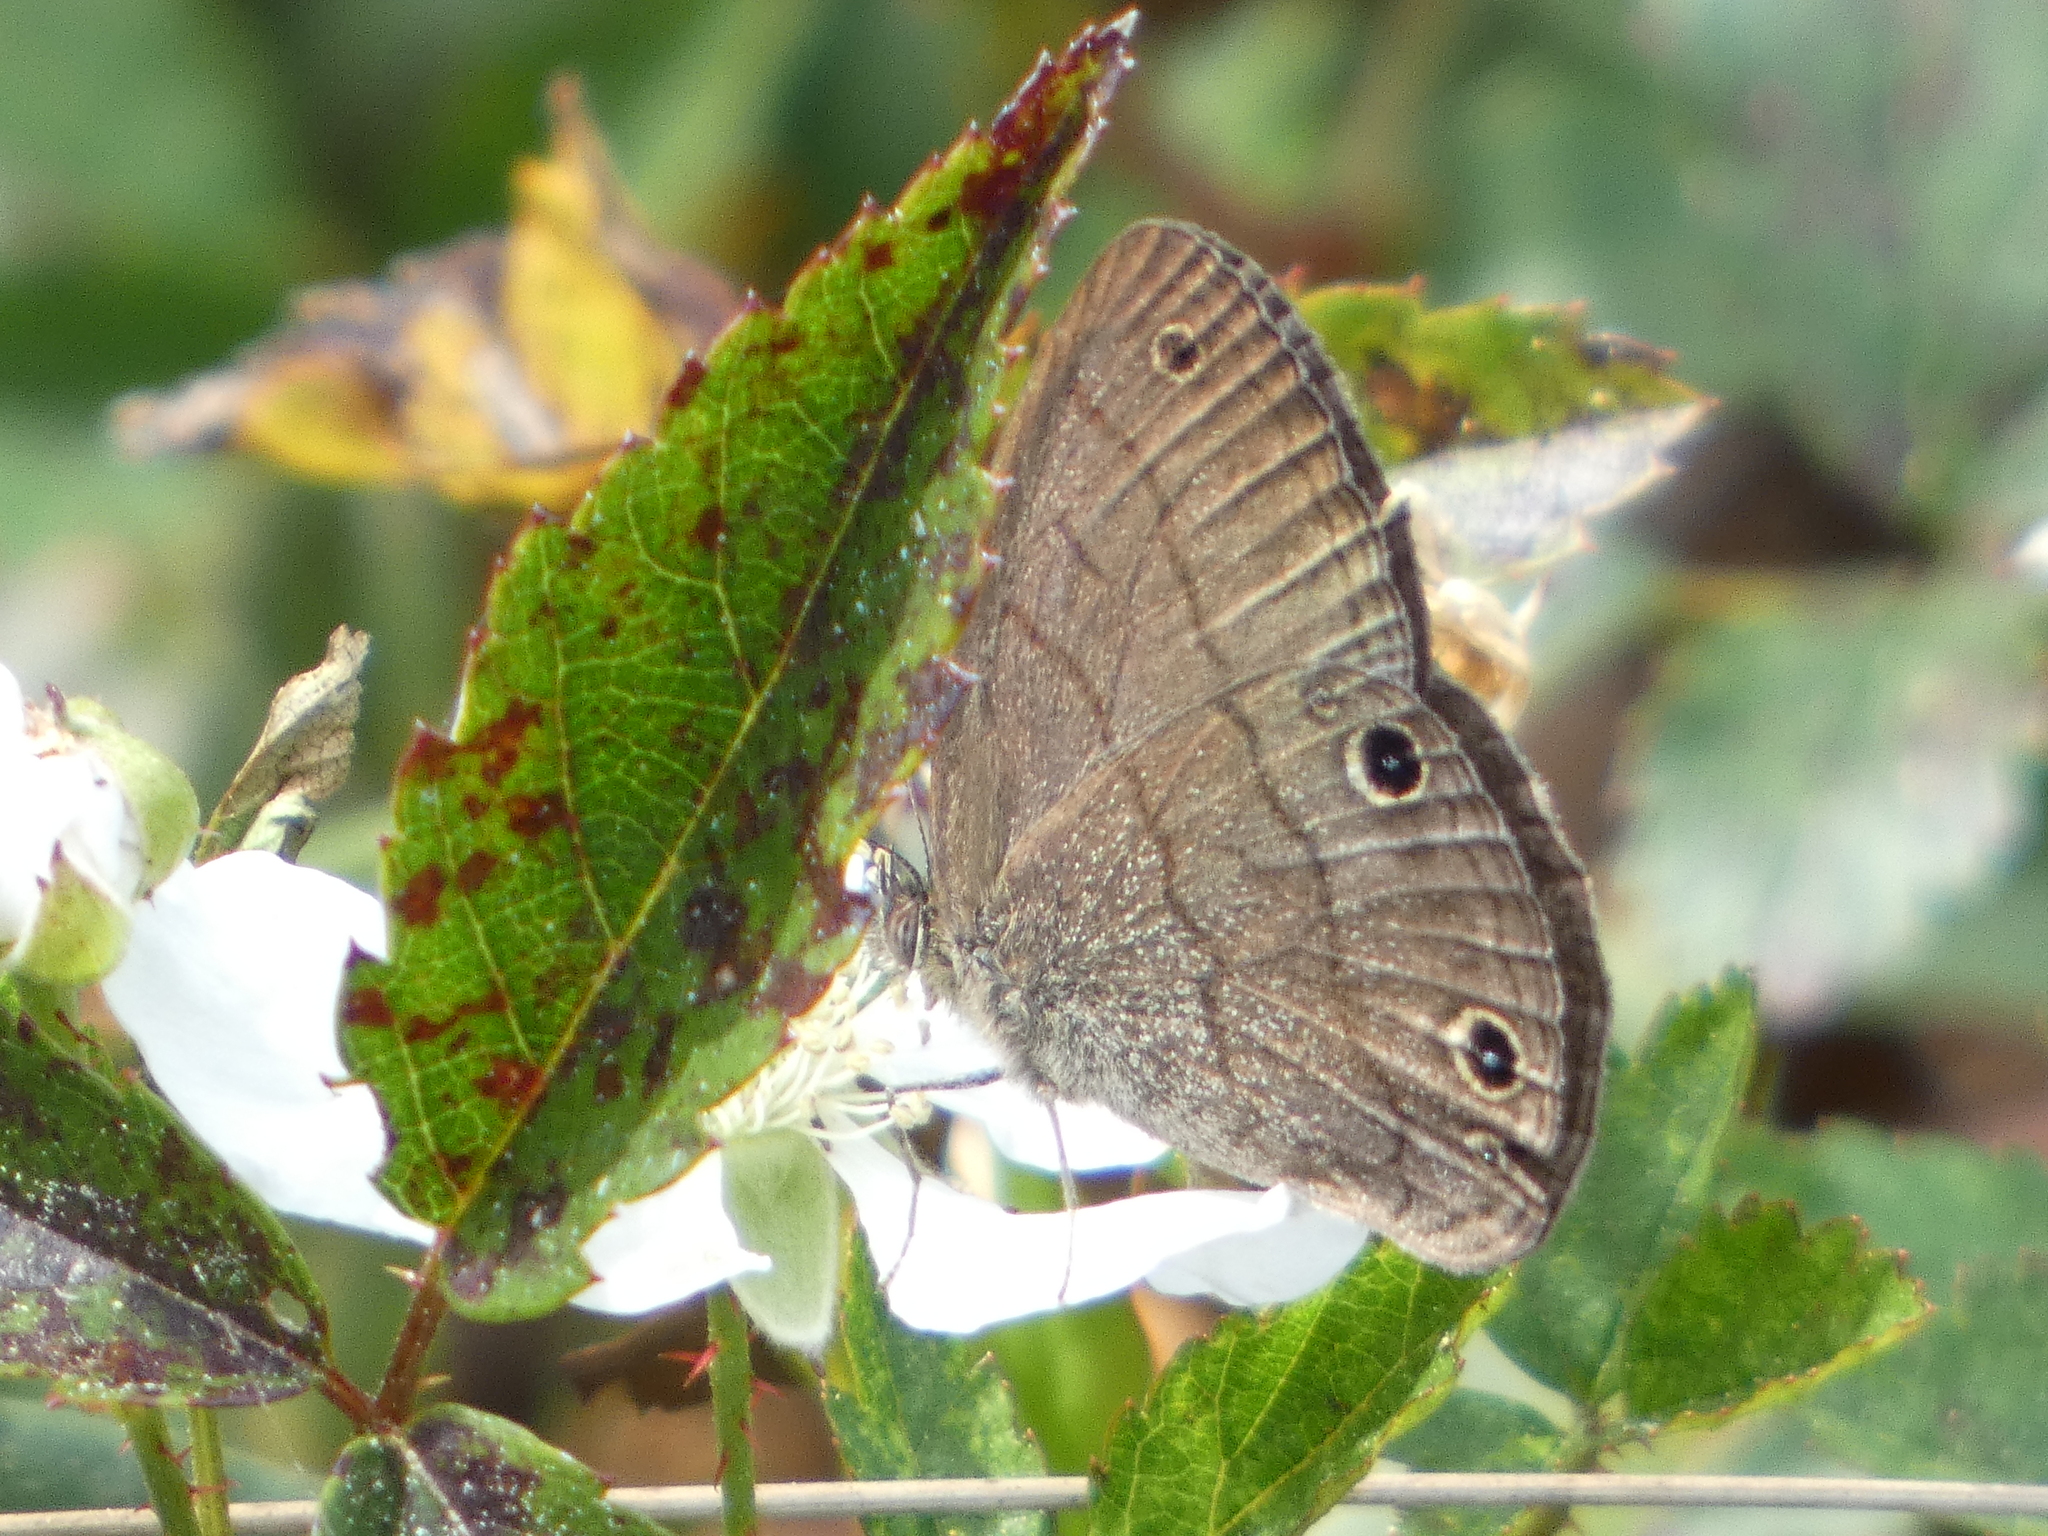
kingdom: Animalia
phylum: Arthropoda
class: Insecta
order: Lepidoptera
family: Nymphalidae
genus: Hermeuptychia
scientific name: Hermeuptychia hermes
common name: Hermes satyr
